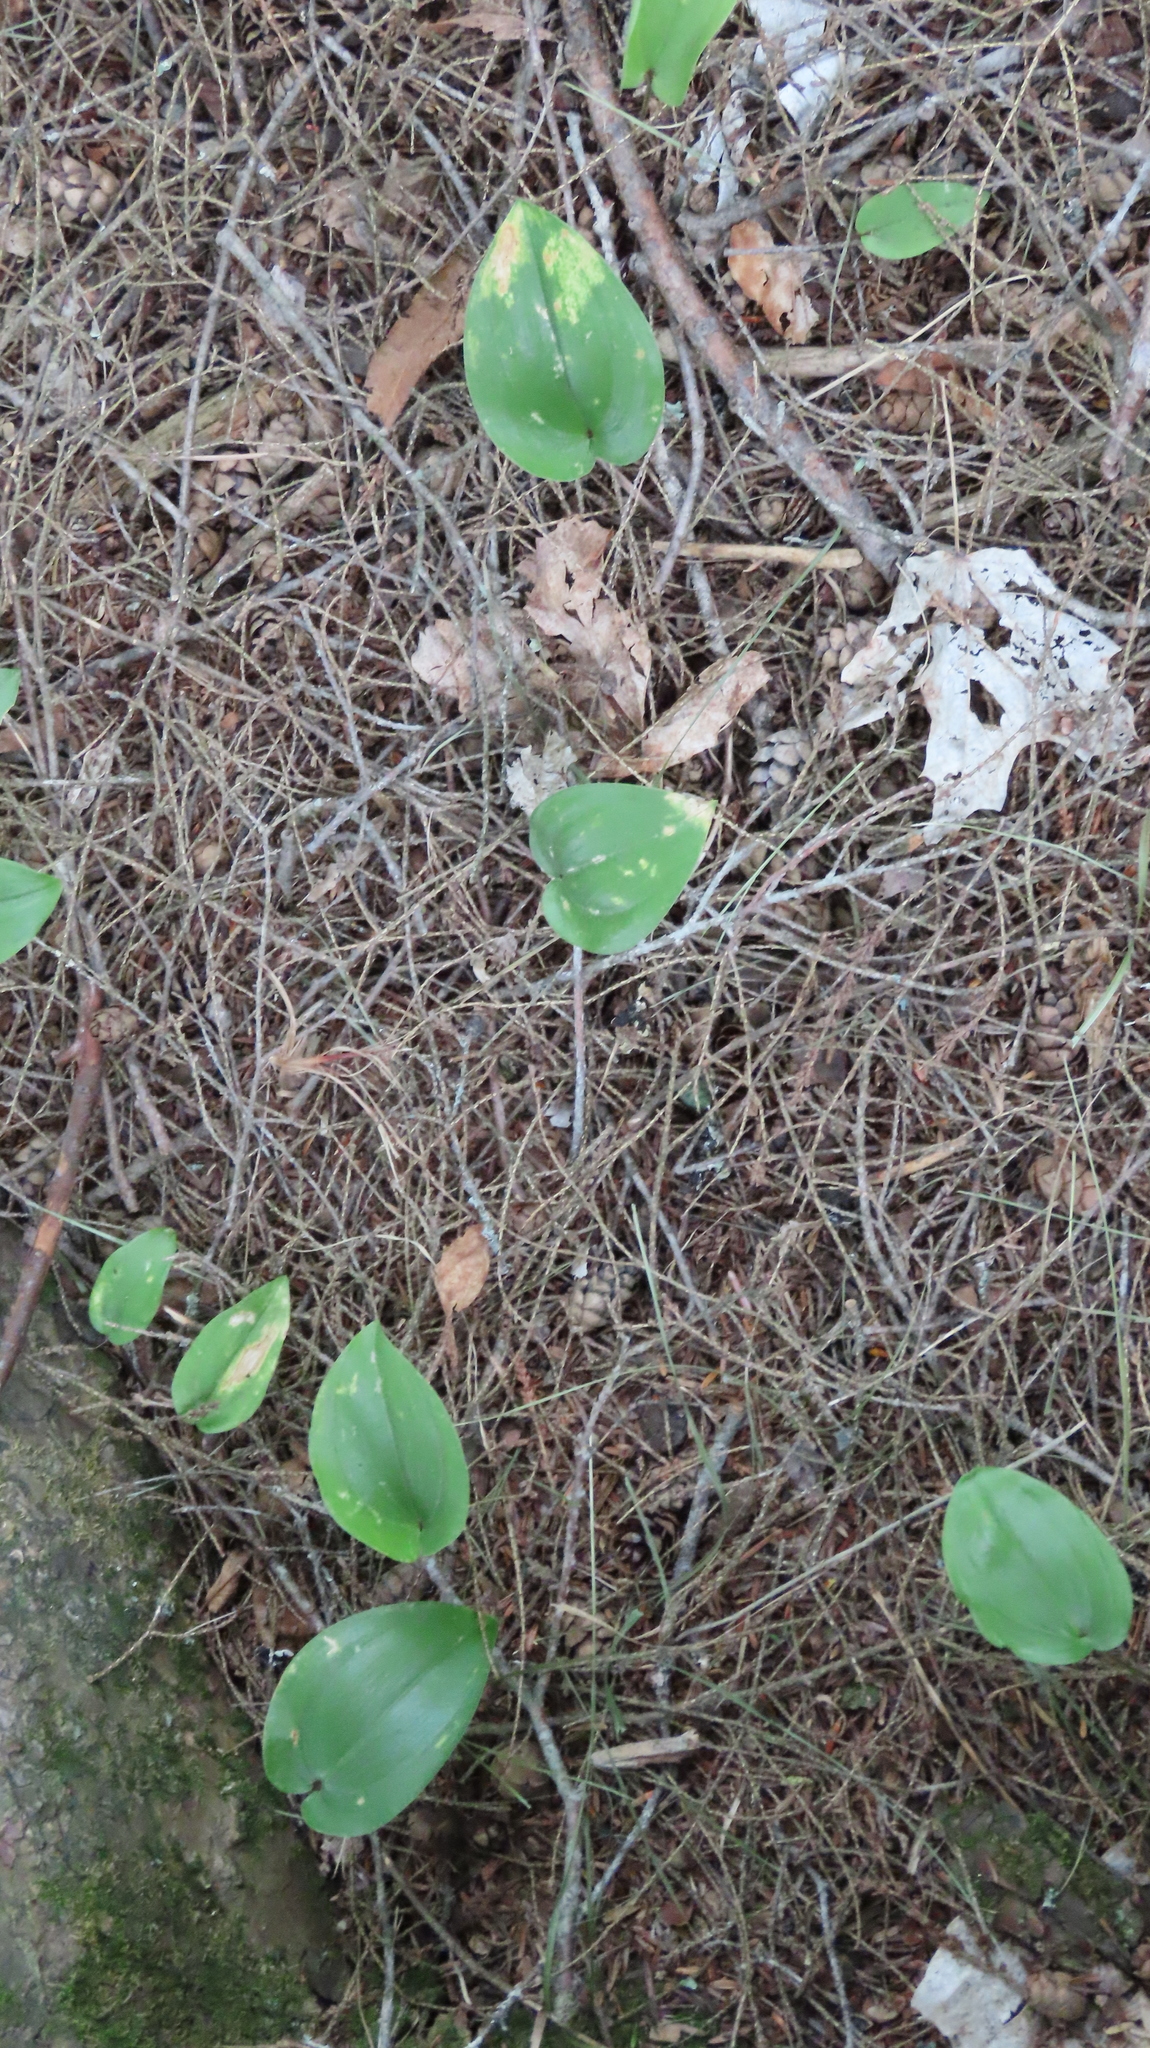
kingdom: Plantae
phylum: Tracheophyta
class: Liliopsida
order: Asparagales
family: Asparagaceae
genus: Maianthemum
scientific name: Maianthemum canadense
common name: False lily-of-the-valley
